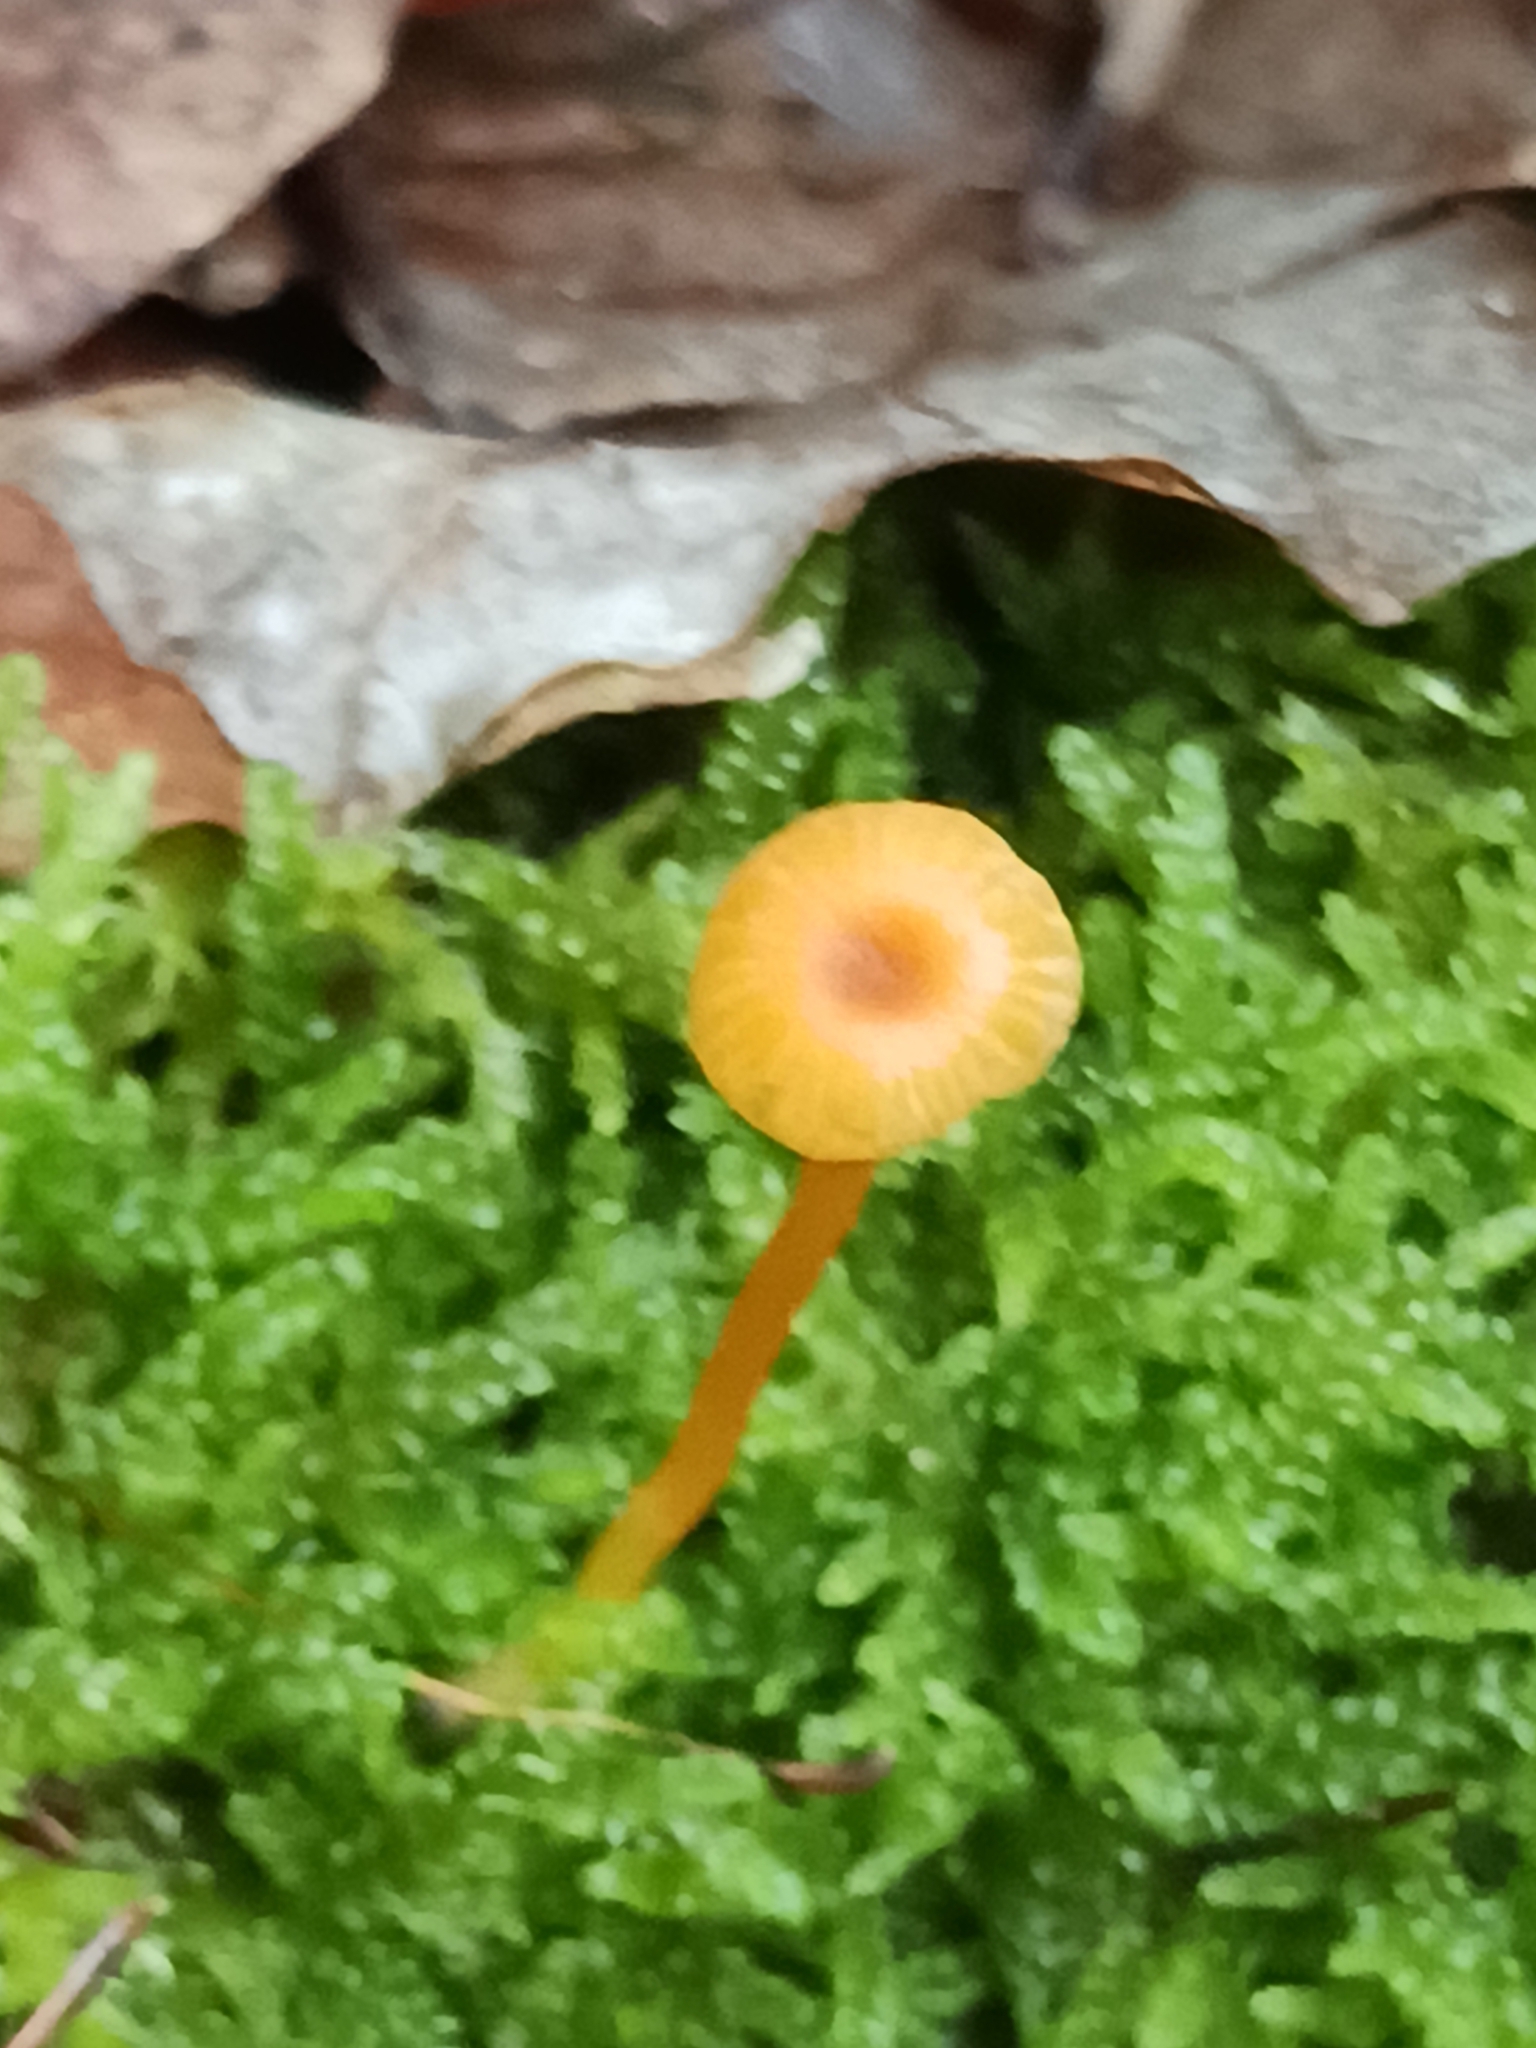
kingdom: Fungi
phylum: Basidiomycota
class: Agaricomycetes
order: Hymenochaetales
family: Rickenellaceae
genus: Rickenella
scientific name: Rickenella fibula
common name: Orange mosscap
